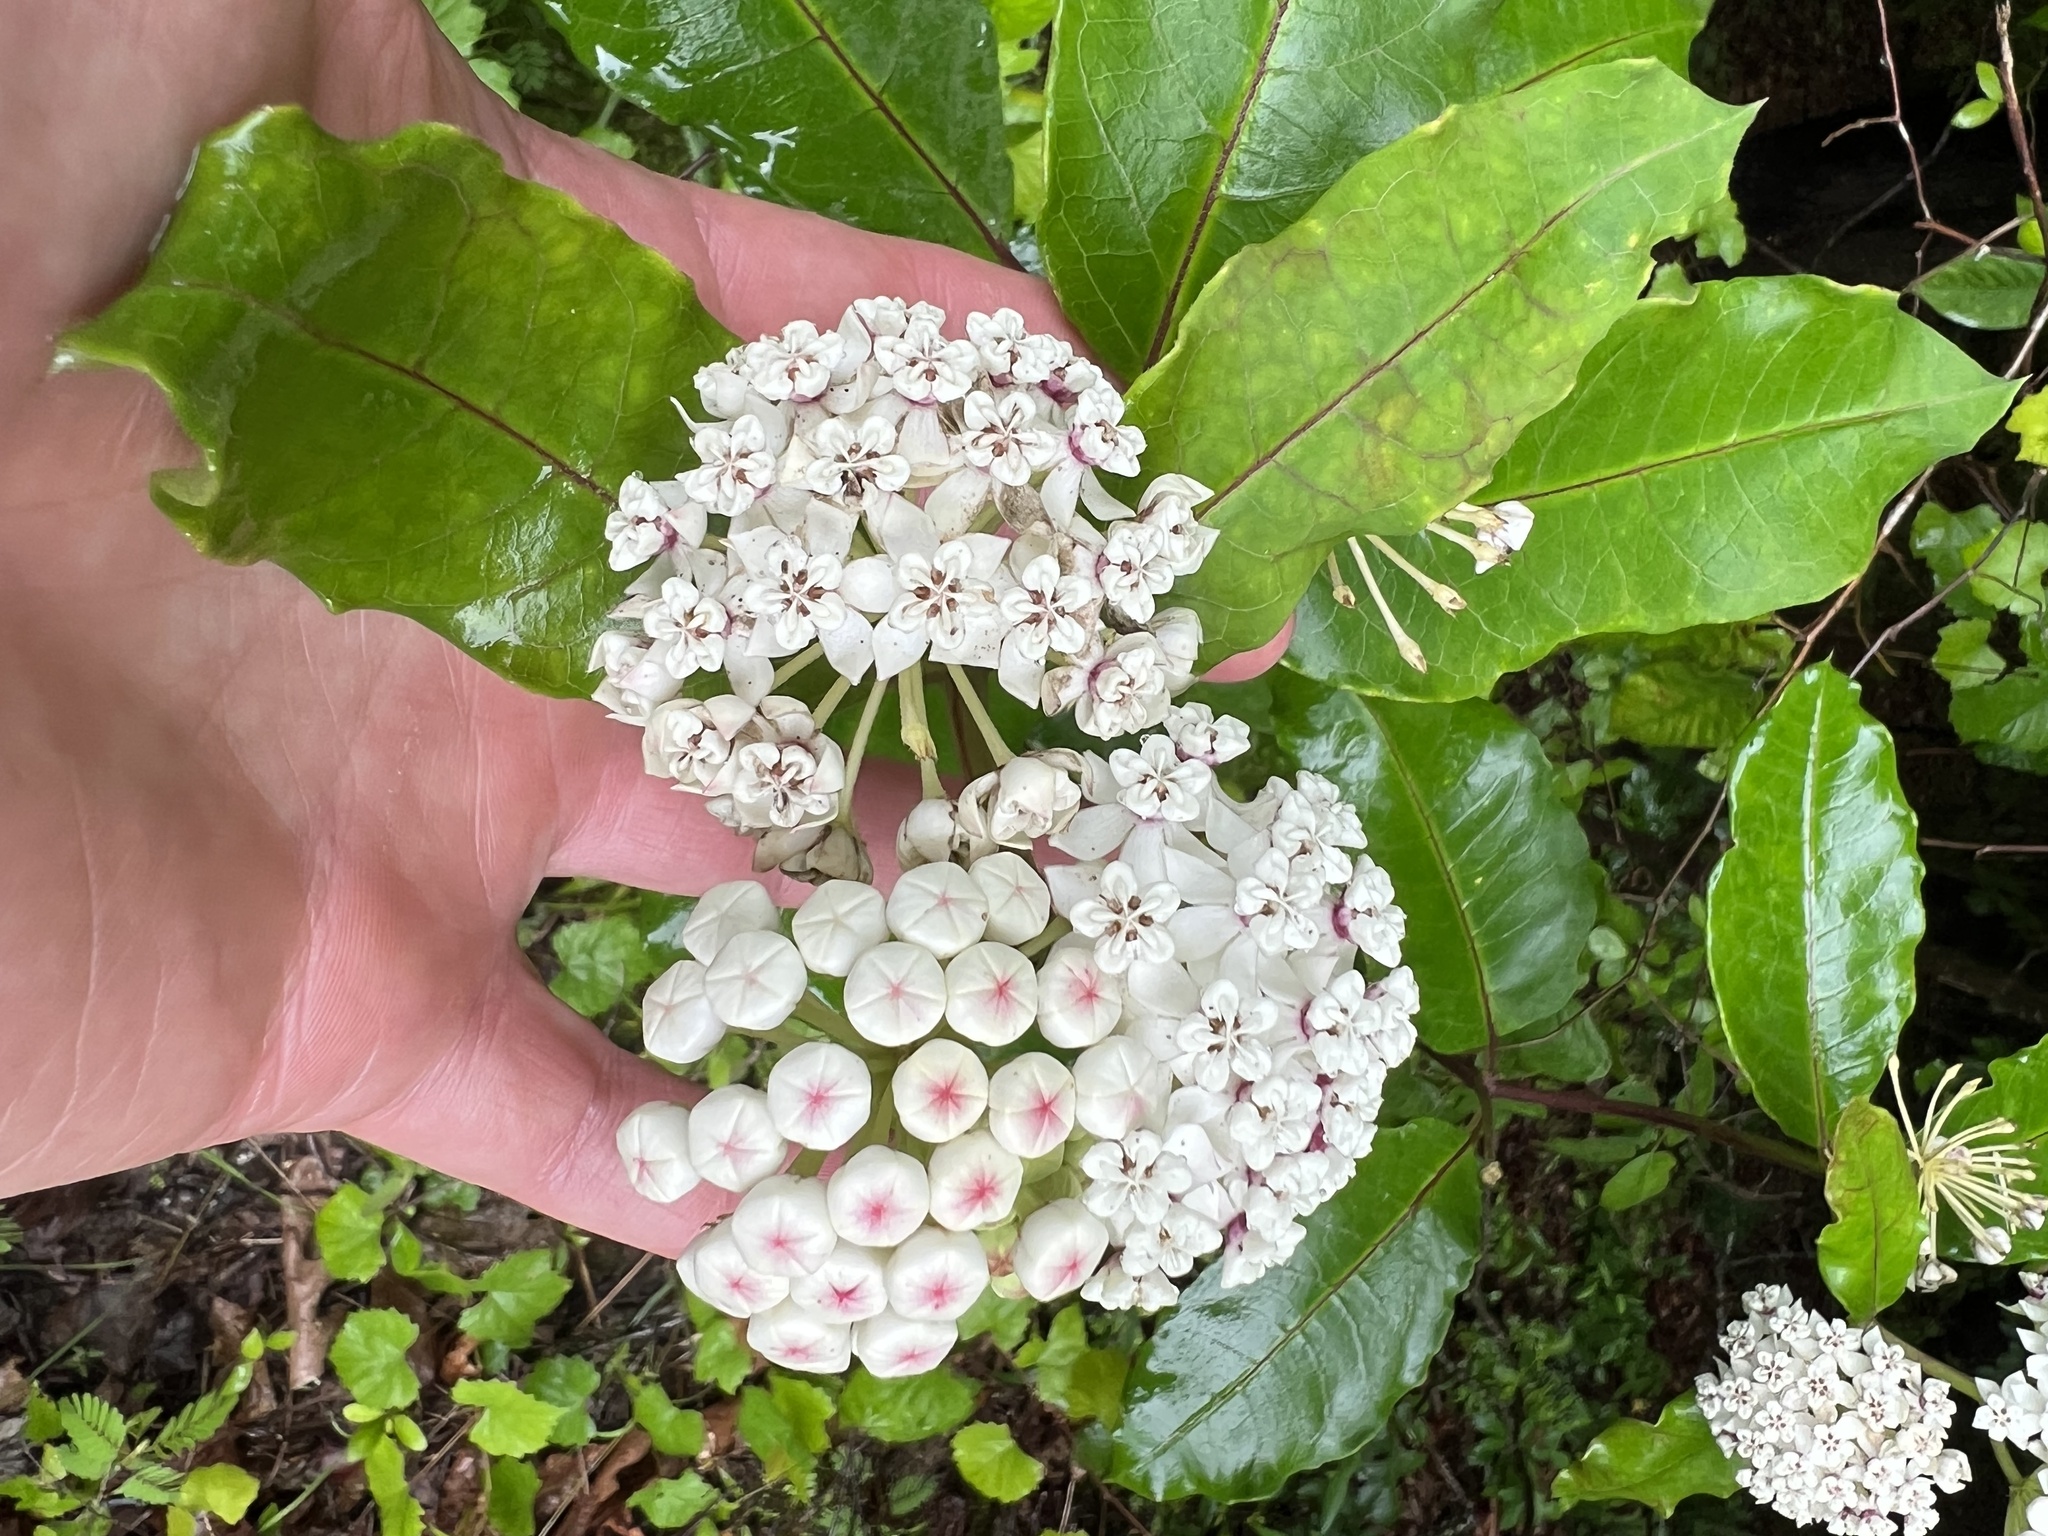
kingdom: Plantae
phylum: Tracheophyta
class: Magnoliopsida
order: Gentianales
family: Apocynaceae
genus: Asclepias
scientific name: Asclepias variegata
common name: Variegated milkweed
